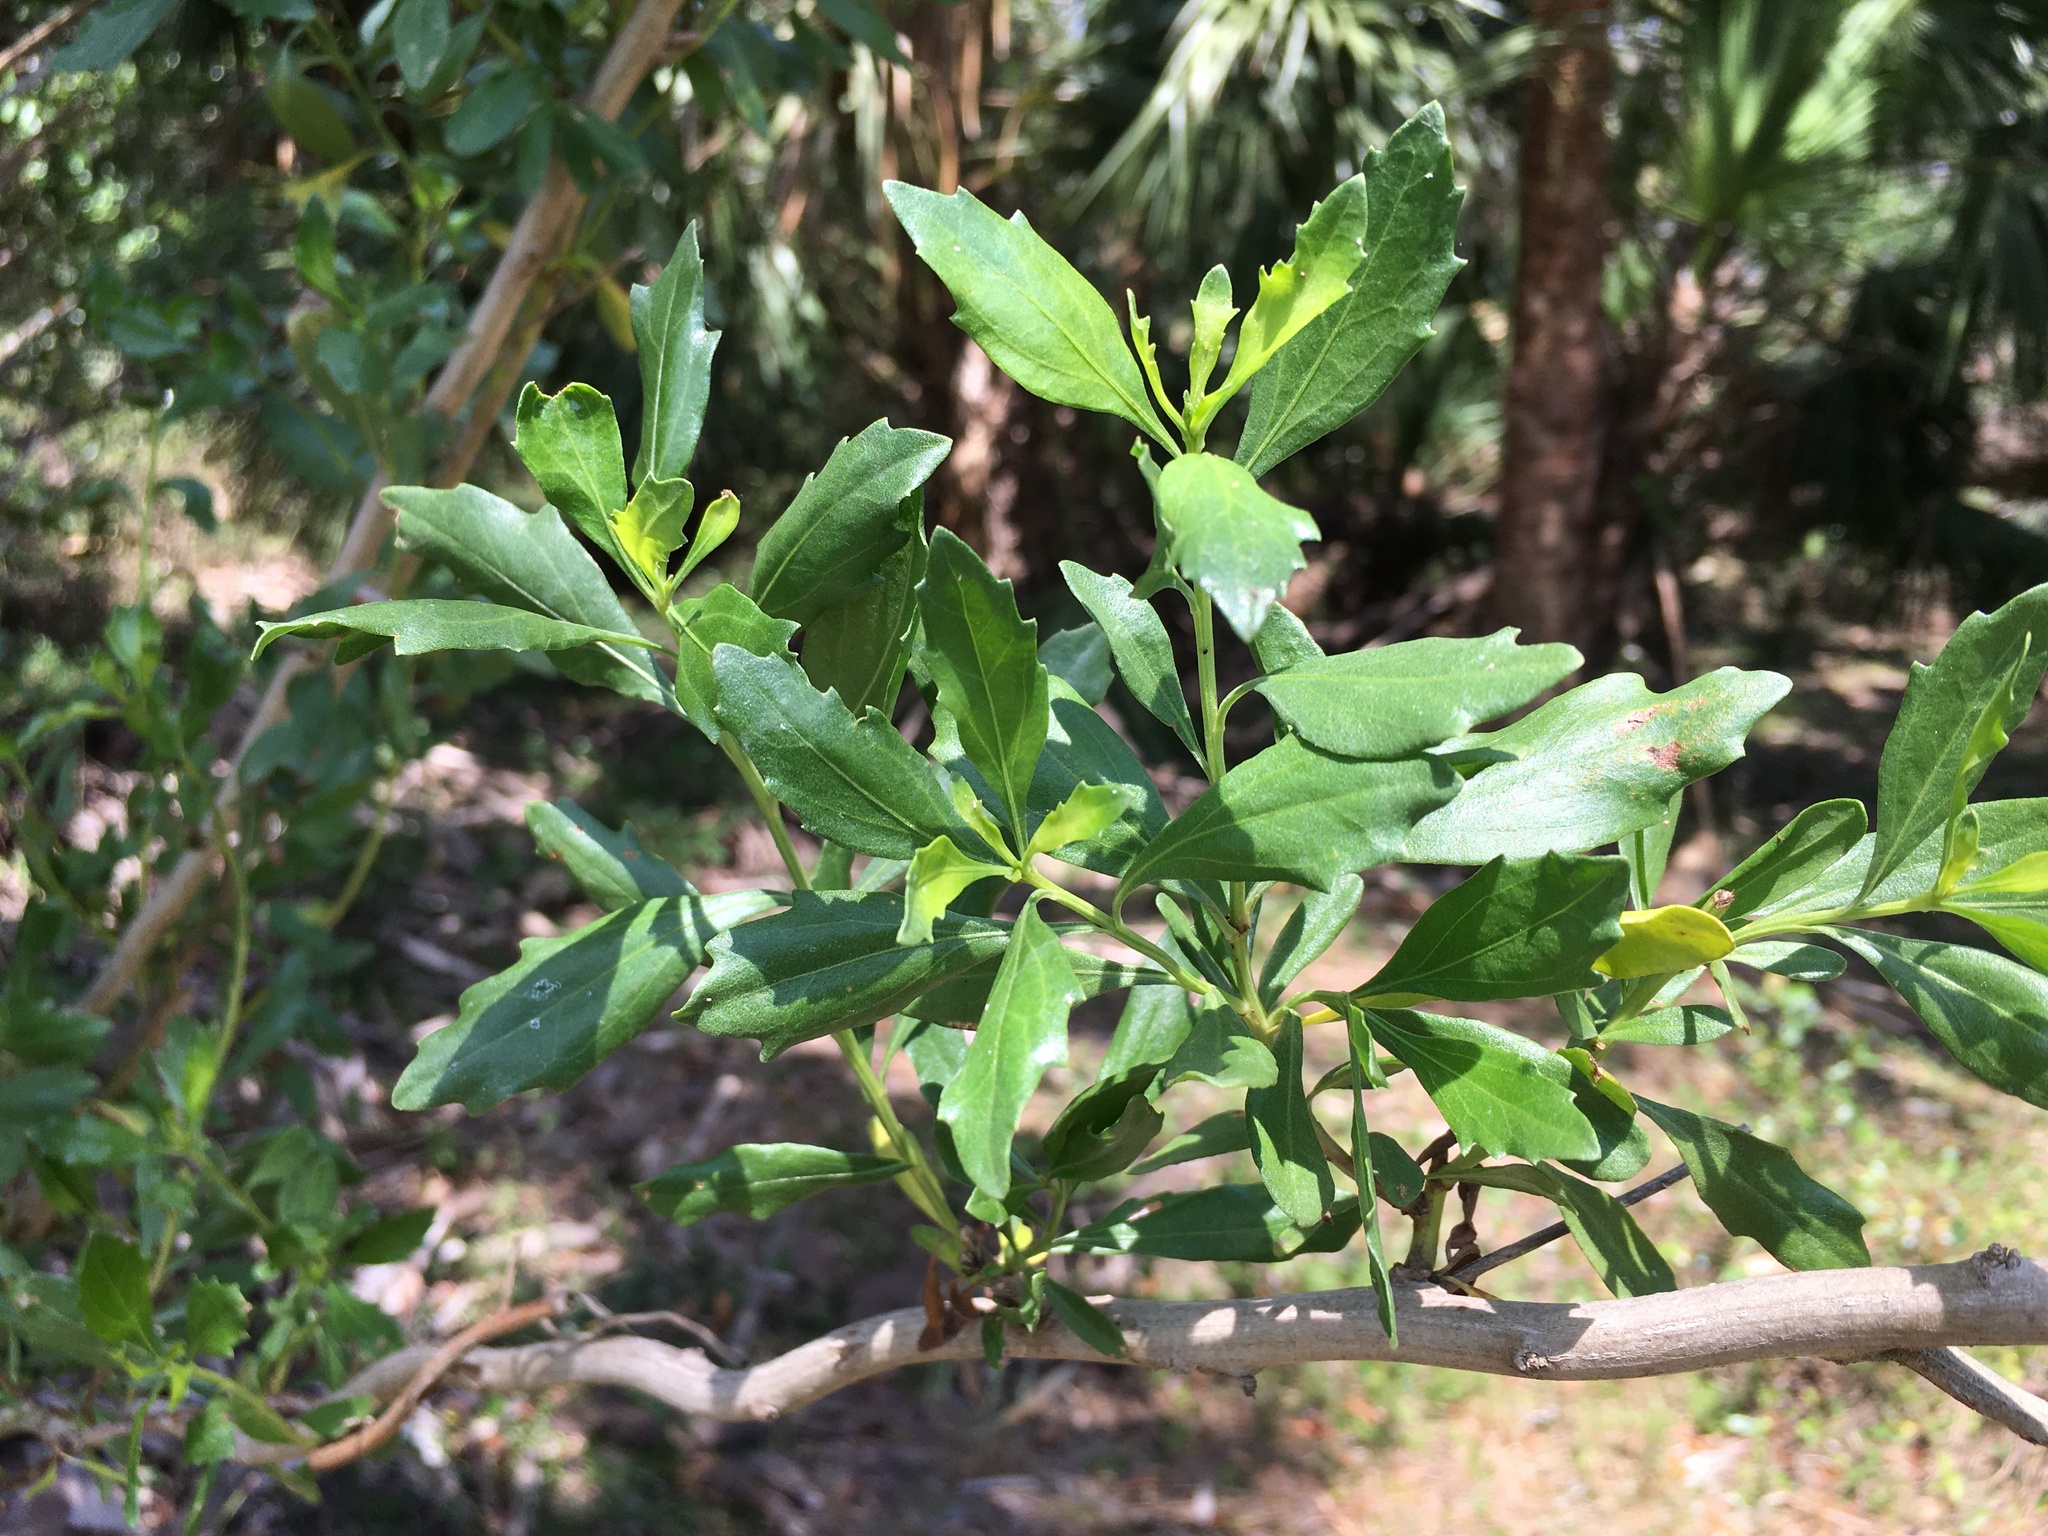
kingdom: Plantae
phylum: Tracheophyta
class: Magnoliopsida
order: Asterales
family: Asteraceae
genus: Baccharis
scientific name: Baccharis halimifolia
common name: Eastern baccharis
